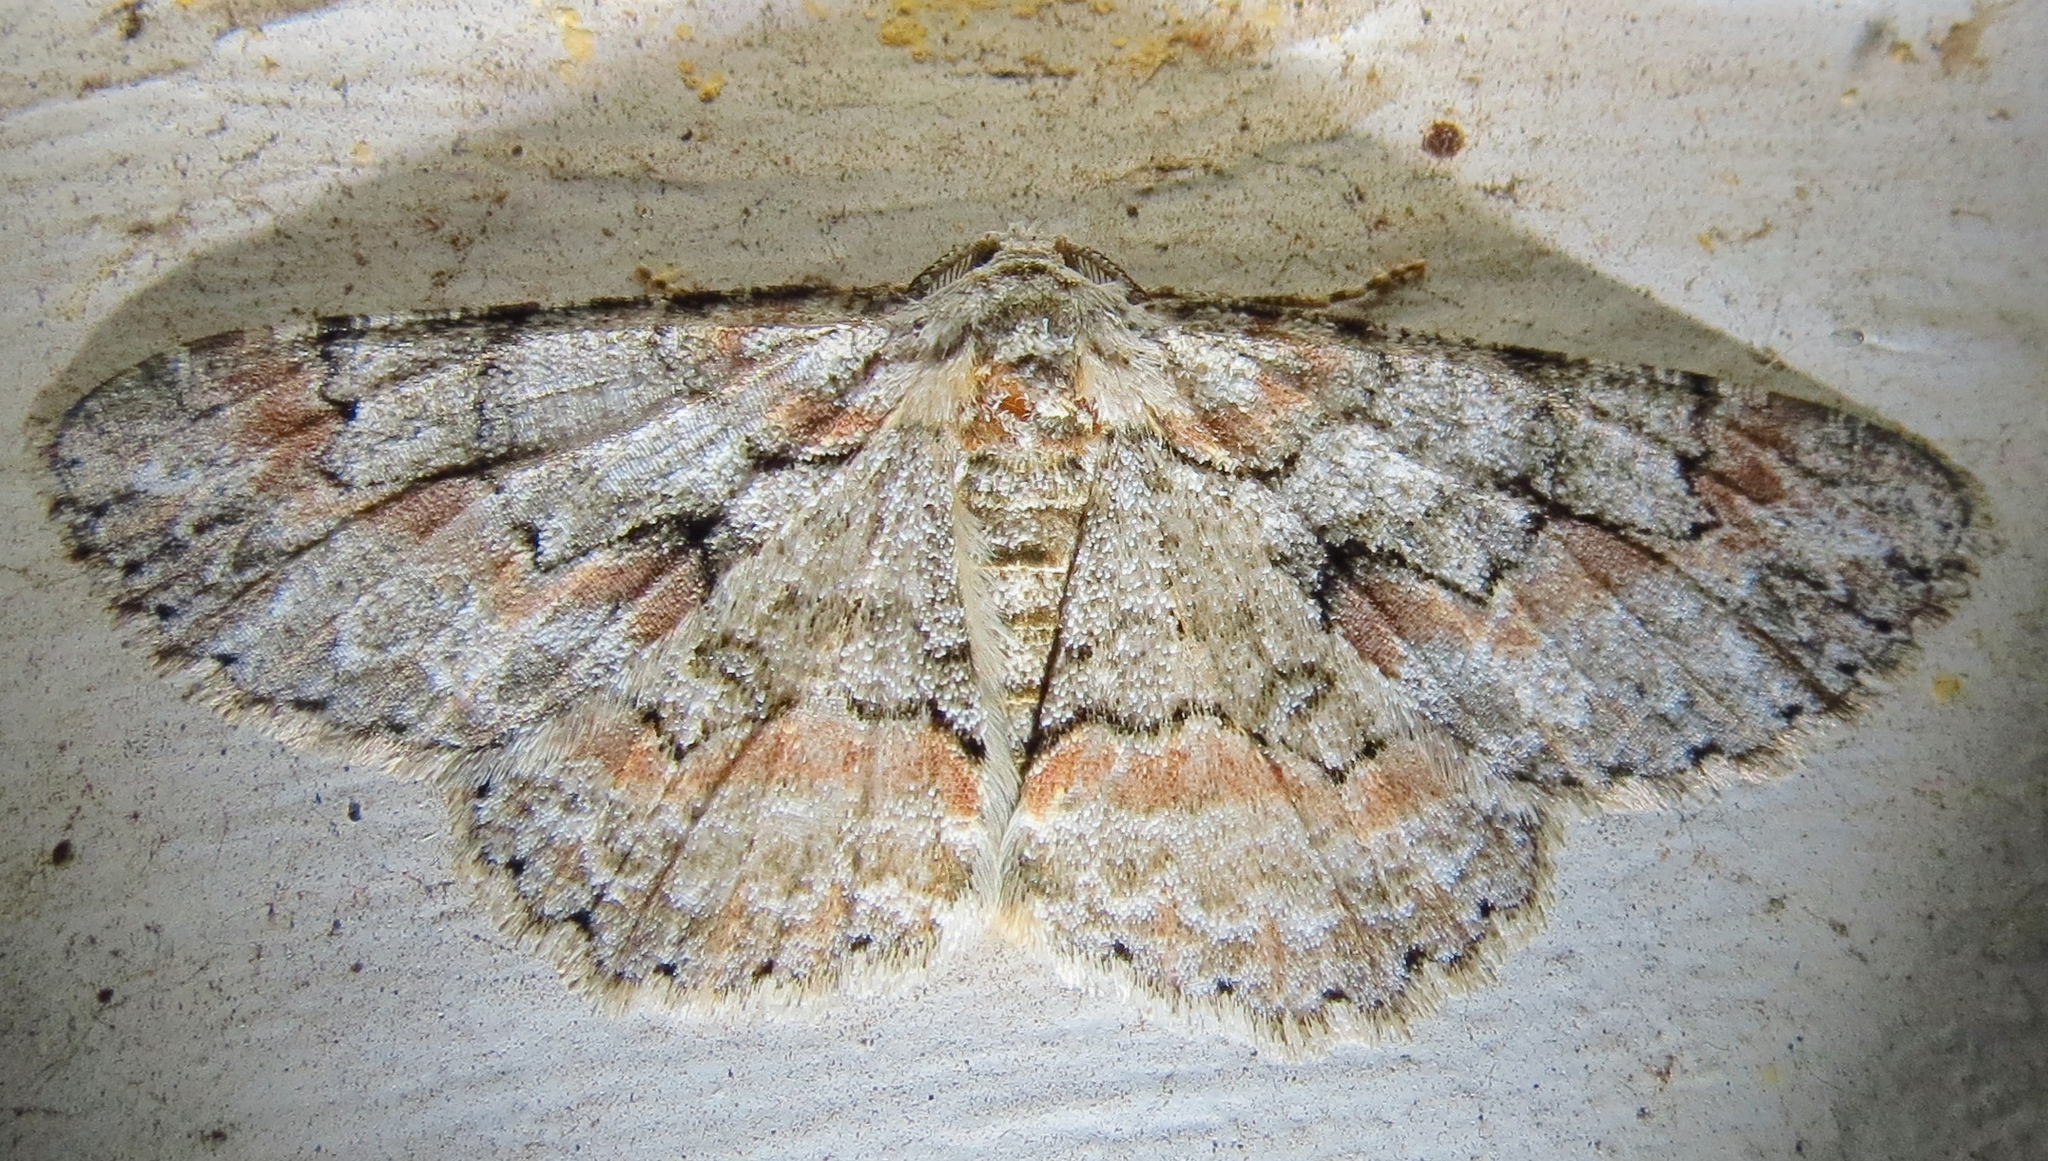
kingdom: Animalia
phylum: Arthropoda
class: Insecta
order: Lepidoptera
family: Geometridae
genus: Iridopsis
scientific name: Iridopsis defectaria
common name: Brown-shaded gray
